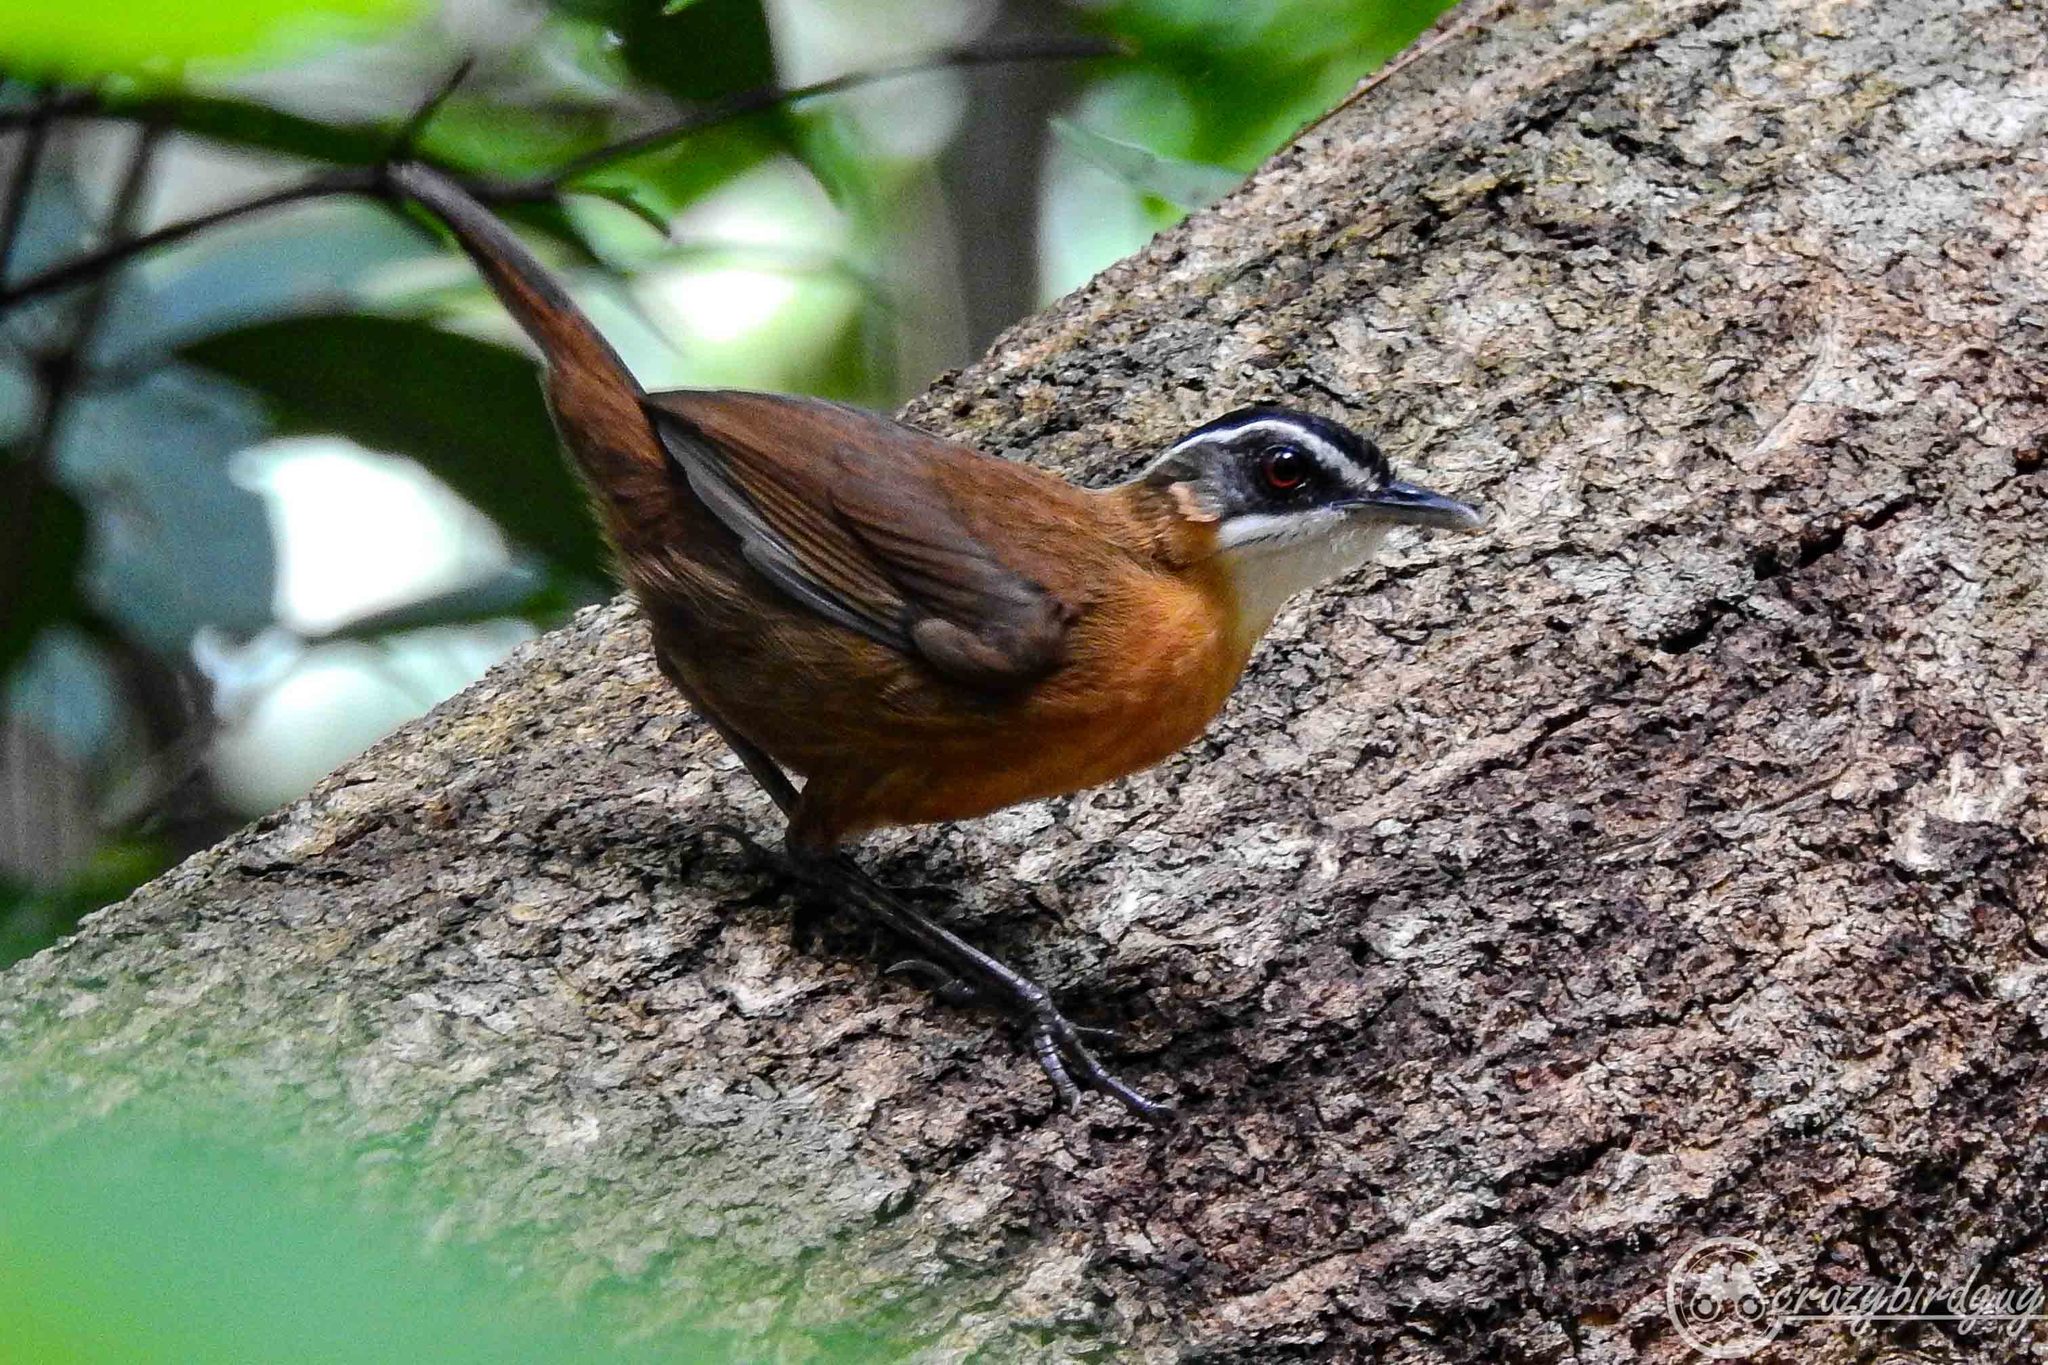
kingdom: Animalia
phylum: Chordata
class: Aves
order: Passeriformes
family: Pellorneidae
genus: Pellorneum
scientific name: Pellorneum capistratum
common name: Black-capped babbler
